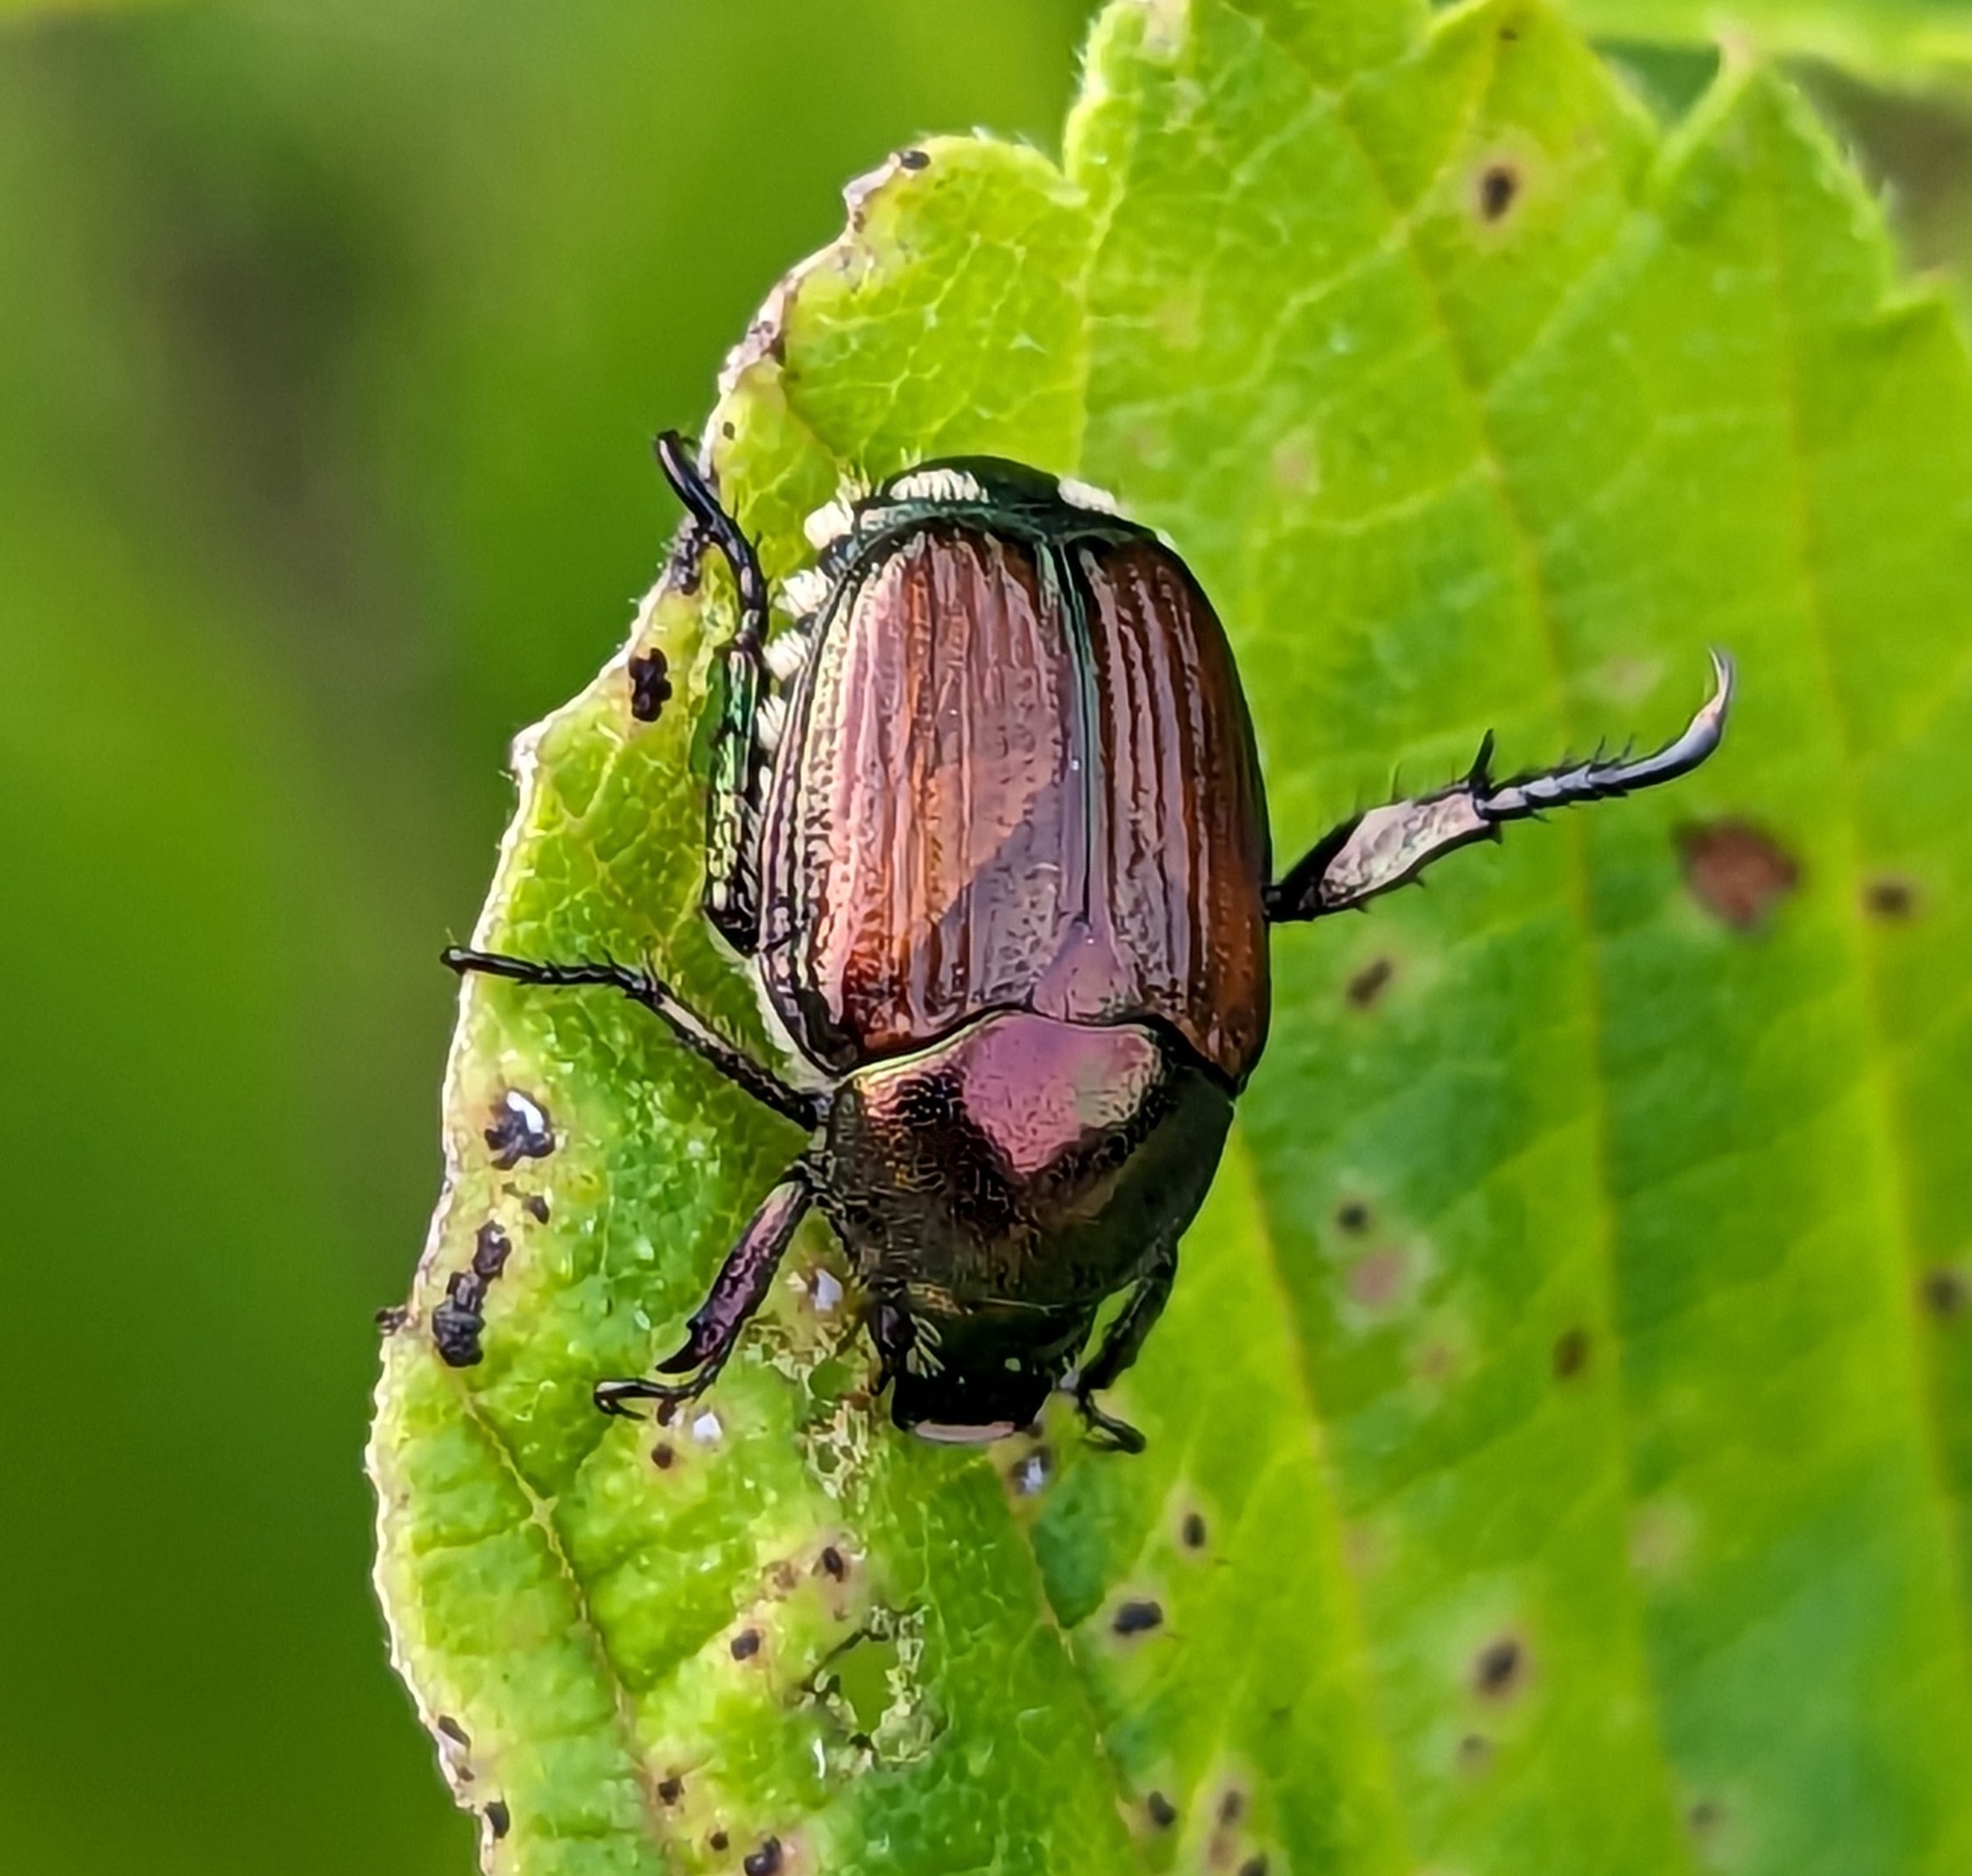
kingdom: Animalia
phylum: Arthropoda
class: Insecta
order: Coleoptera
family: Scarabaeidae
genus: Popillia
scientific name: Popillia japonica
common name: Japanese beetle
